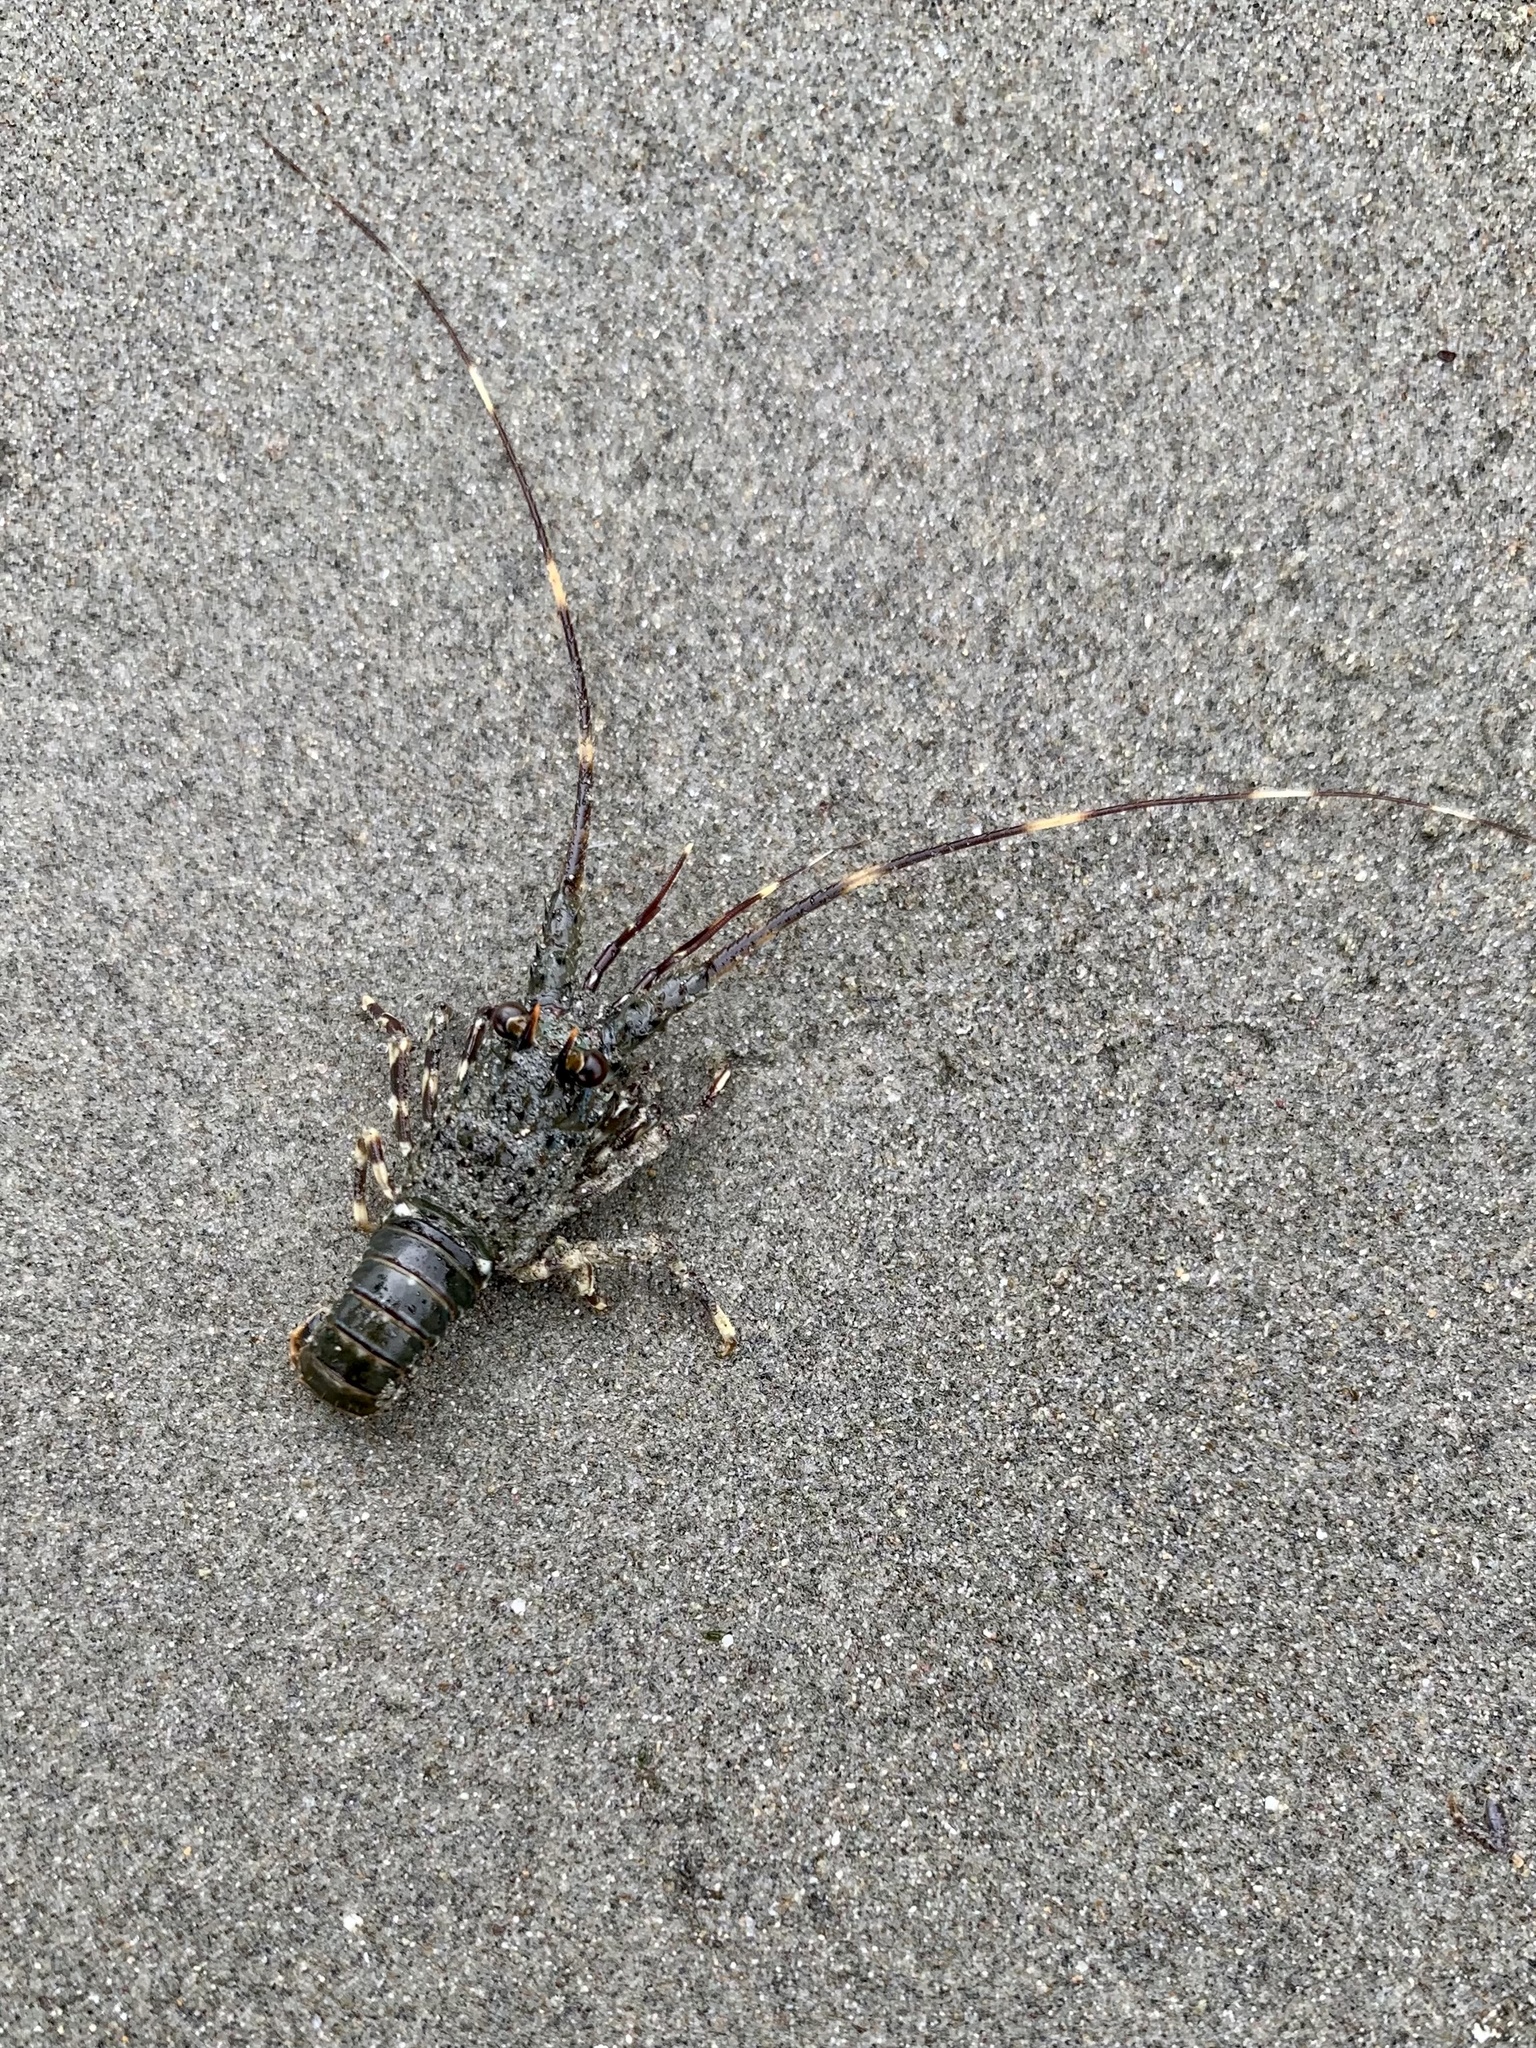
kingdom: Animalia
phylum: Arthropoda
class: Malacostraca
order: Decapoda
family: Palinuridae
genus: Panulirus
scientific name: Panulirus gracilis
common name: Green spiny lobster
